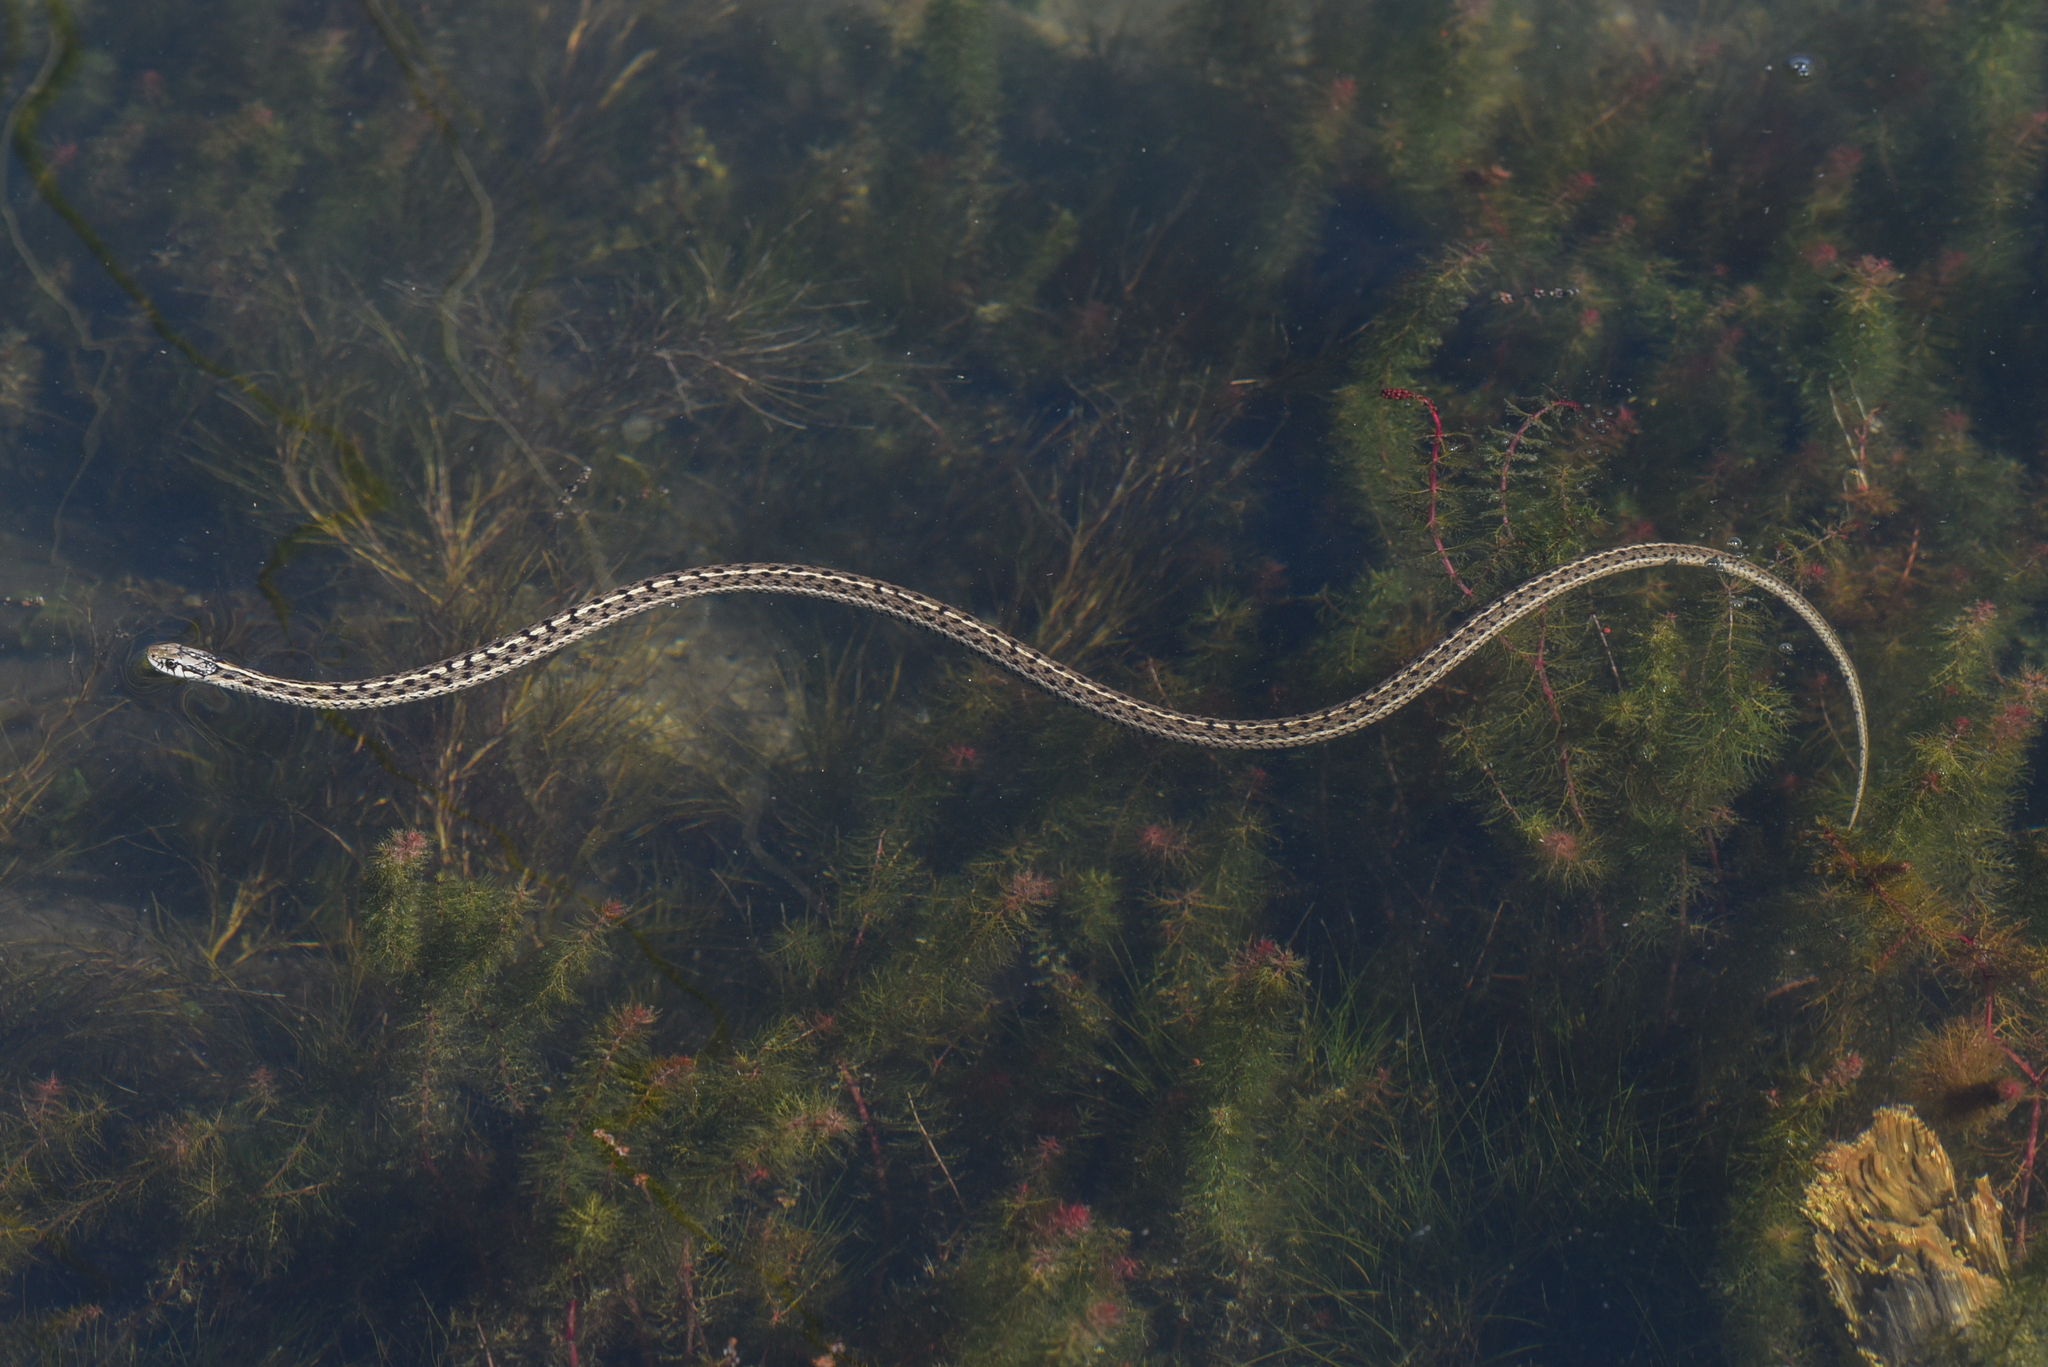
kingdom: Animalia
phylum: Chordata
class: Squamata
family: Colubridae
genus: Thamnophis
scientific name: Thamnophis elegans
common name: Western terrestrial garter snake
